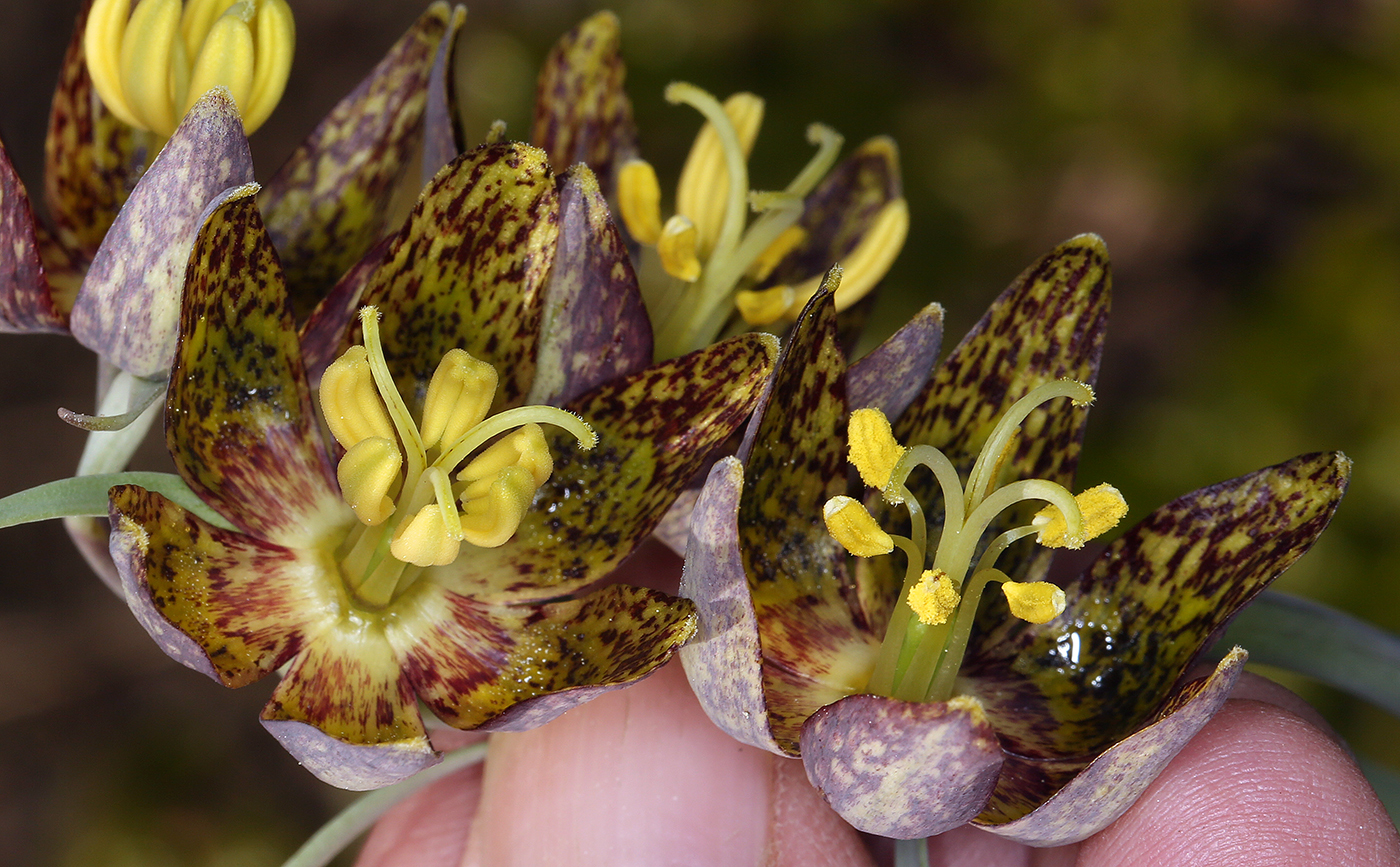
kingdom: Plantae
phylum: Tracheophyta
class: Liliopsida
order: Liliales
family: Liliaceae
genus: Fritillaria
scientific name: Fritillaria affinis
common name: Ojai fritillary
